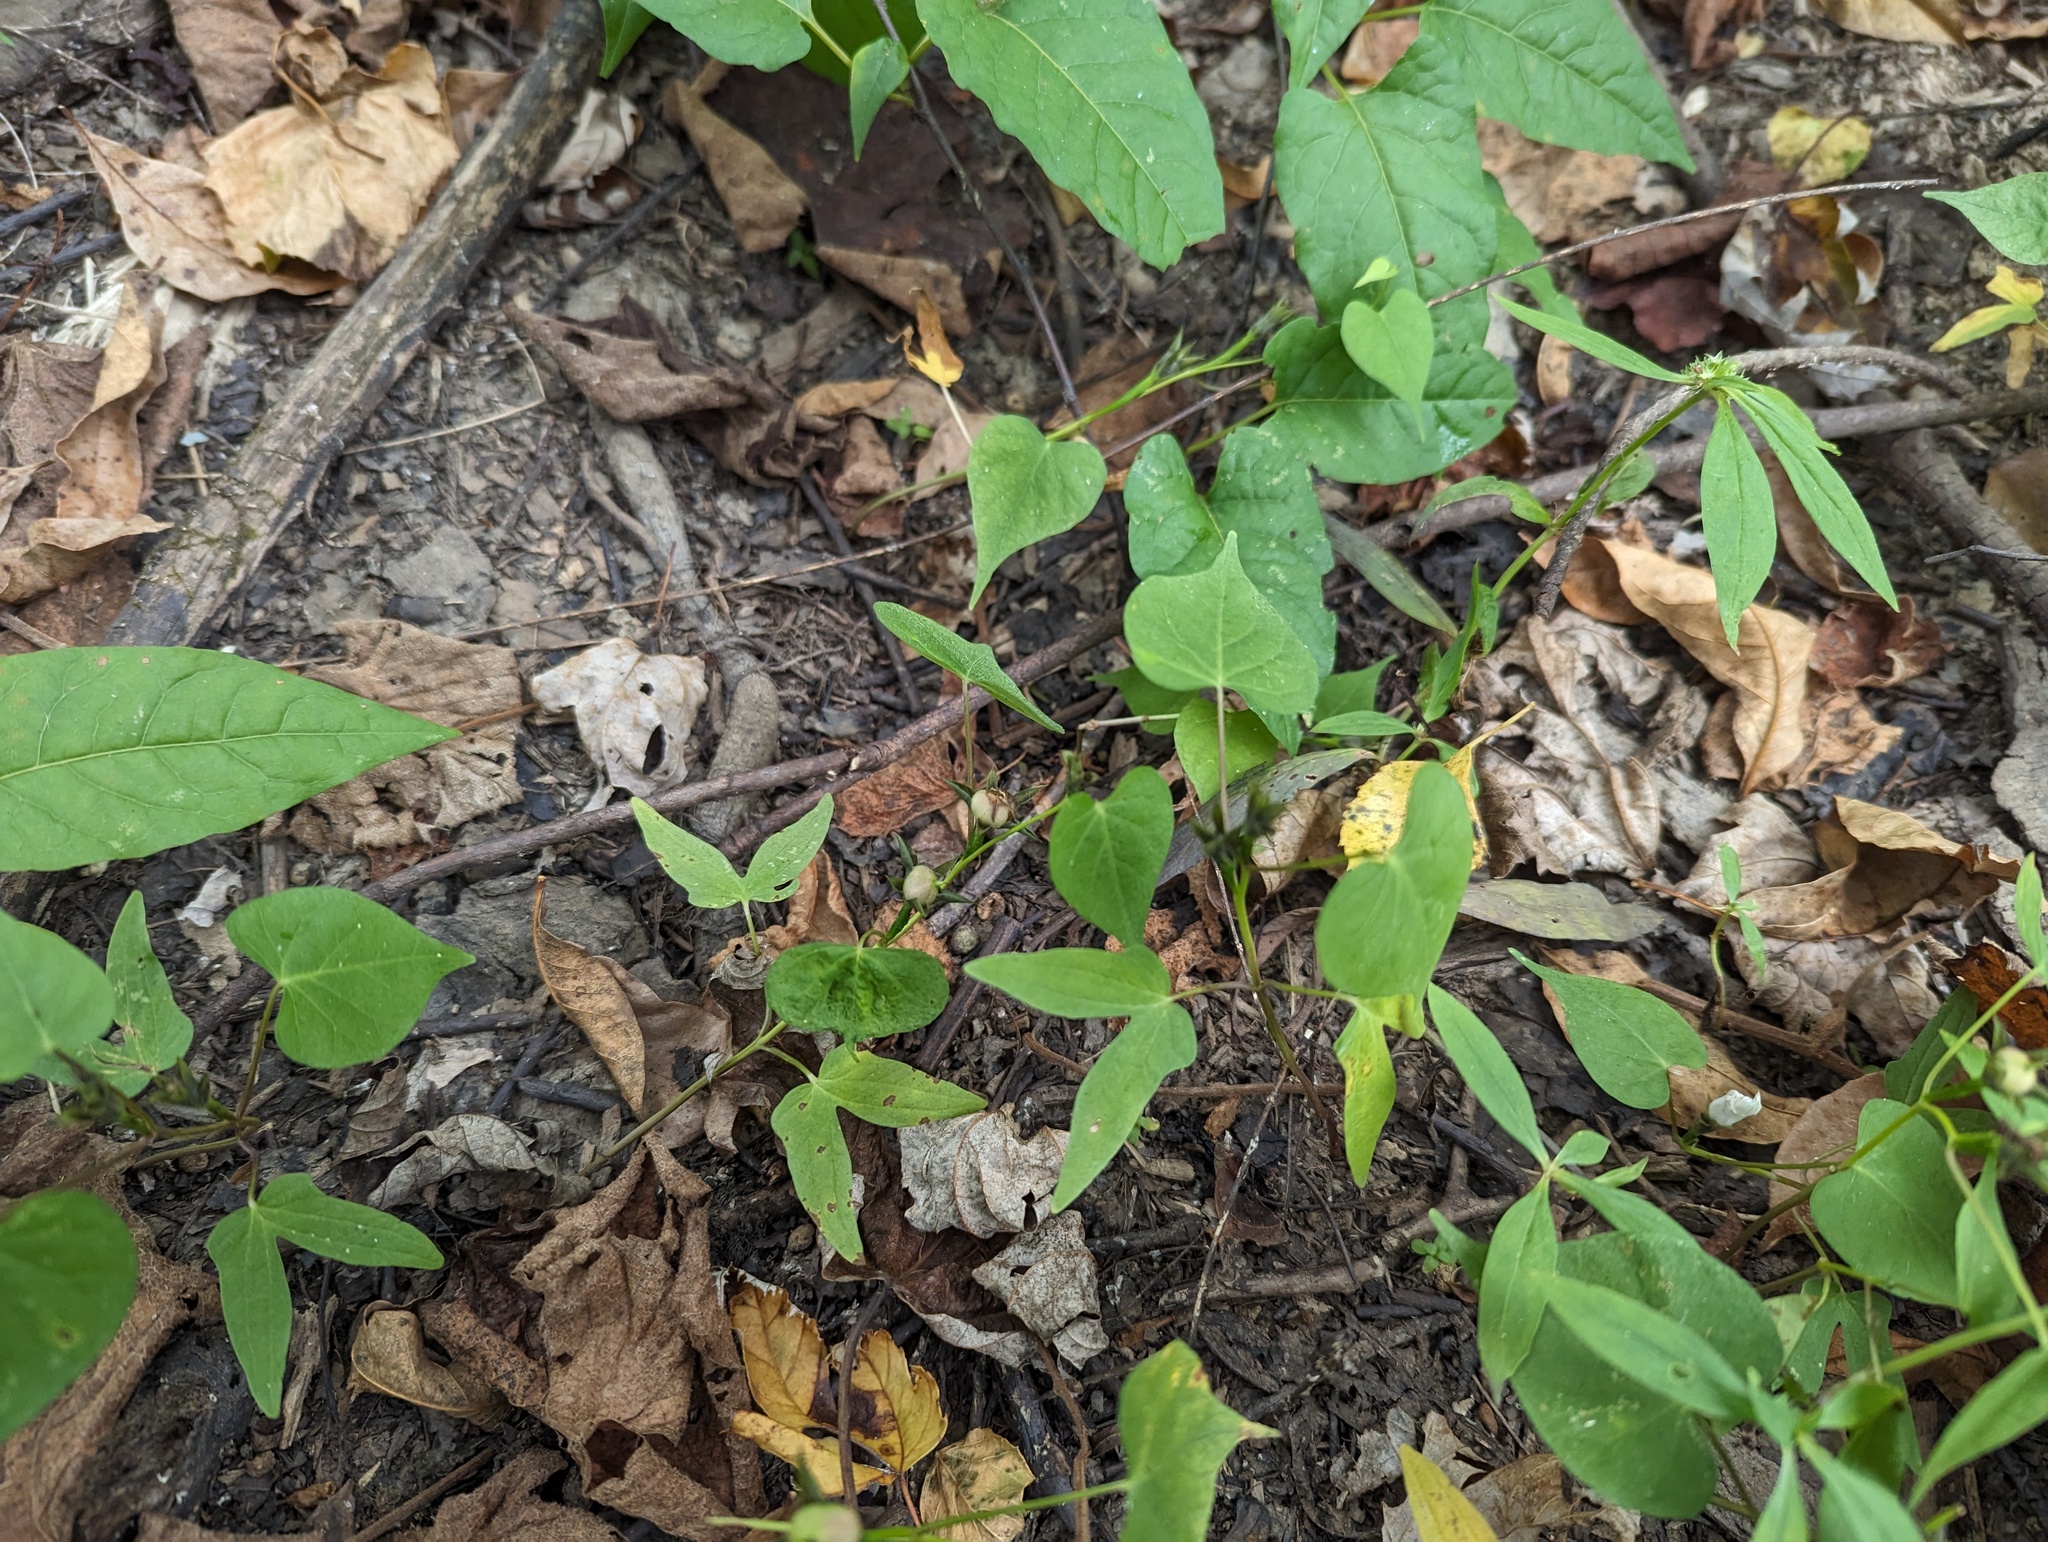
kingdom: Plantae
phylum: Tracheophyta
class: Magnoliopsida
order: Solanales
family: Convolvulaceae
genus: Ipomoea
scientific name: Ipomoea lacunosa
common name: White morning-glory
